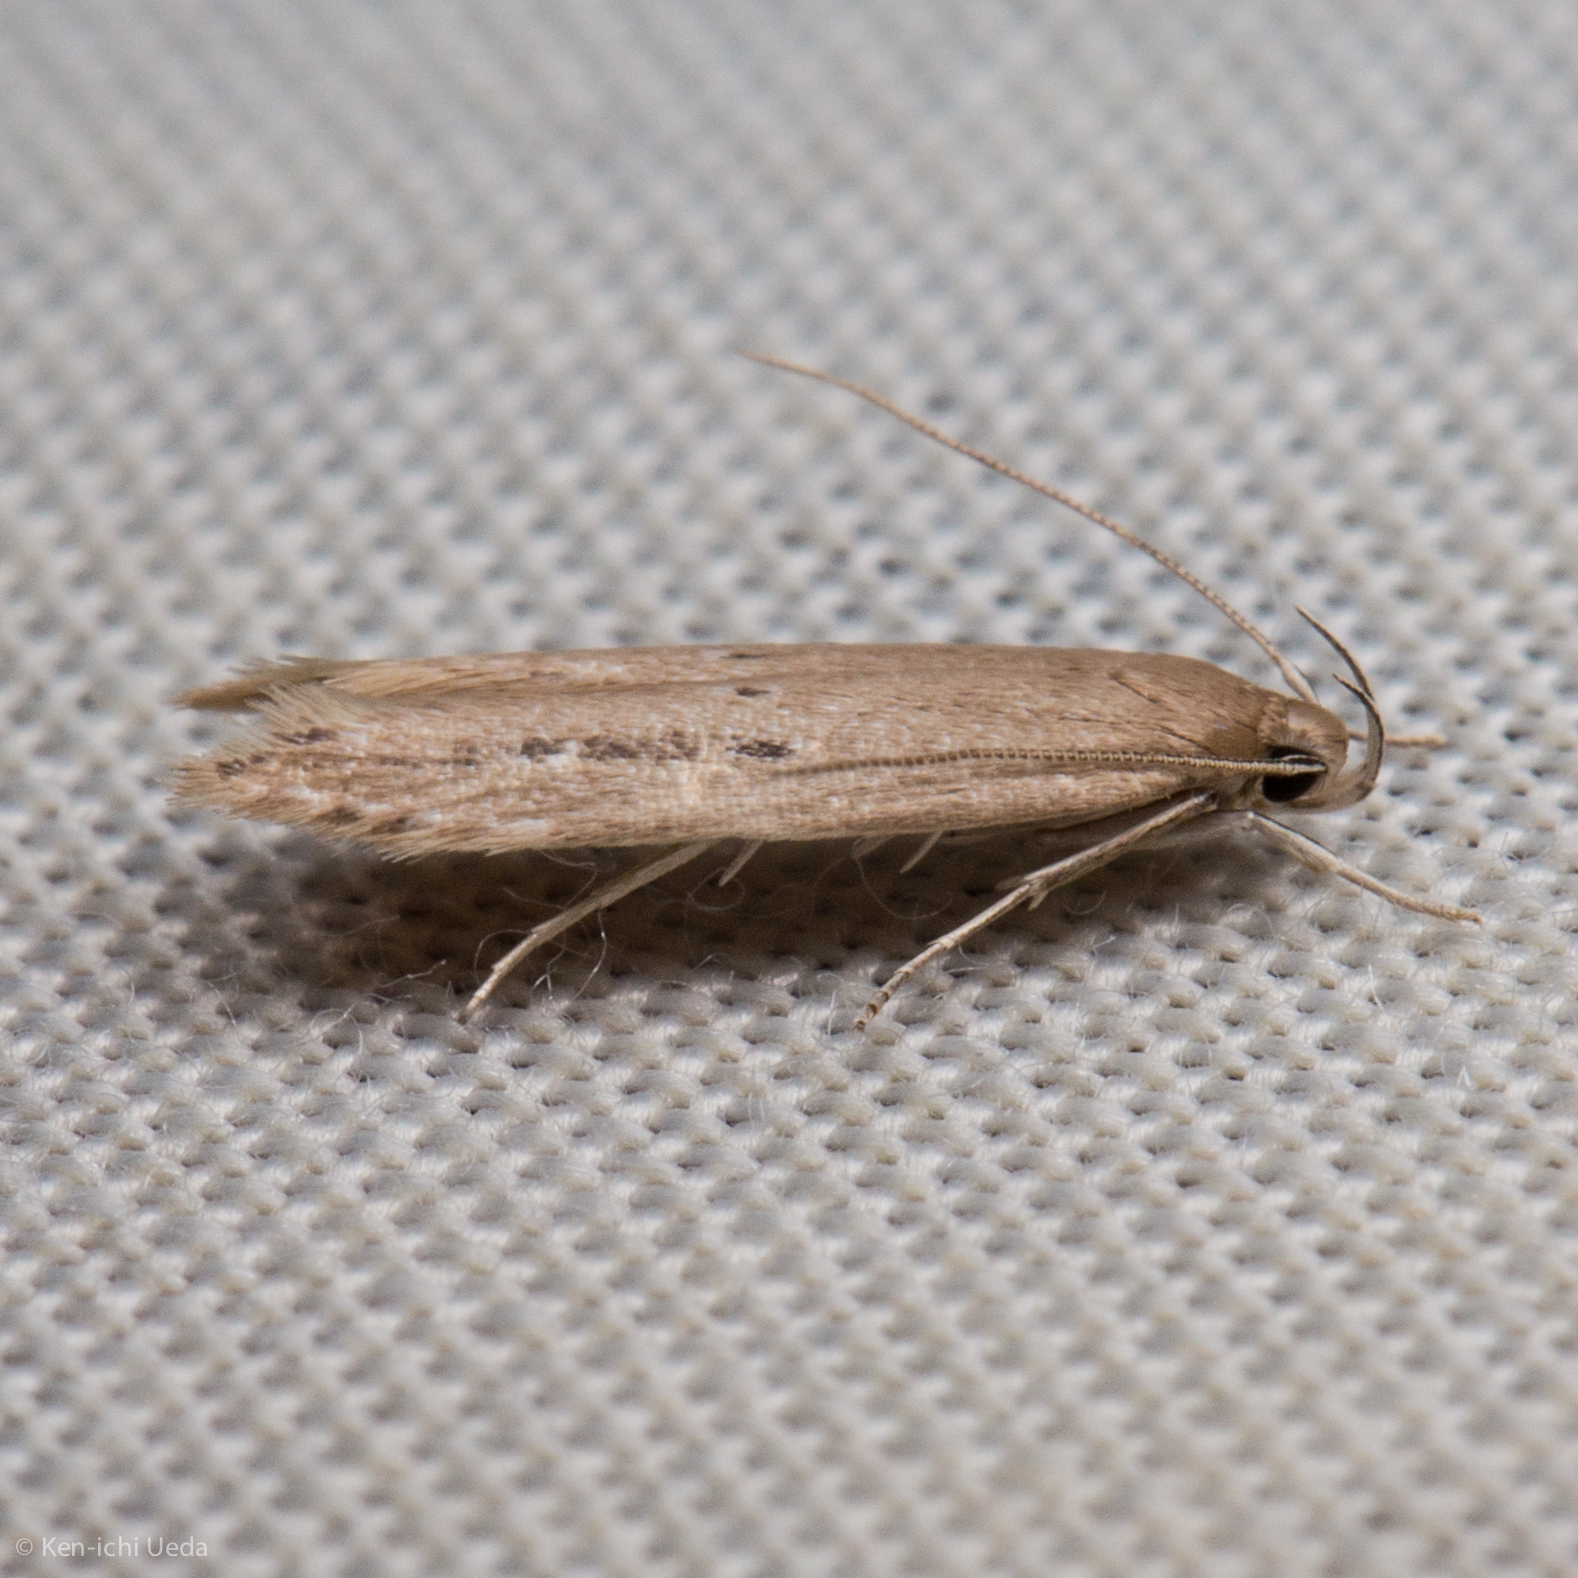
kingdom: Animalia
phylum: Arthropoda
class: Insecta
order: Lepidoptera
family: Cosmopterigidae
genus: Limnaecia
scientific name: Limnaecia phragmitella
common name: Bulrush cosmet
